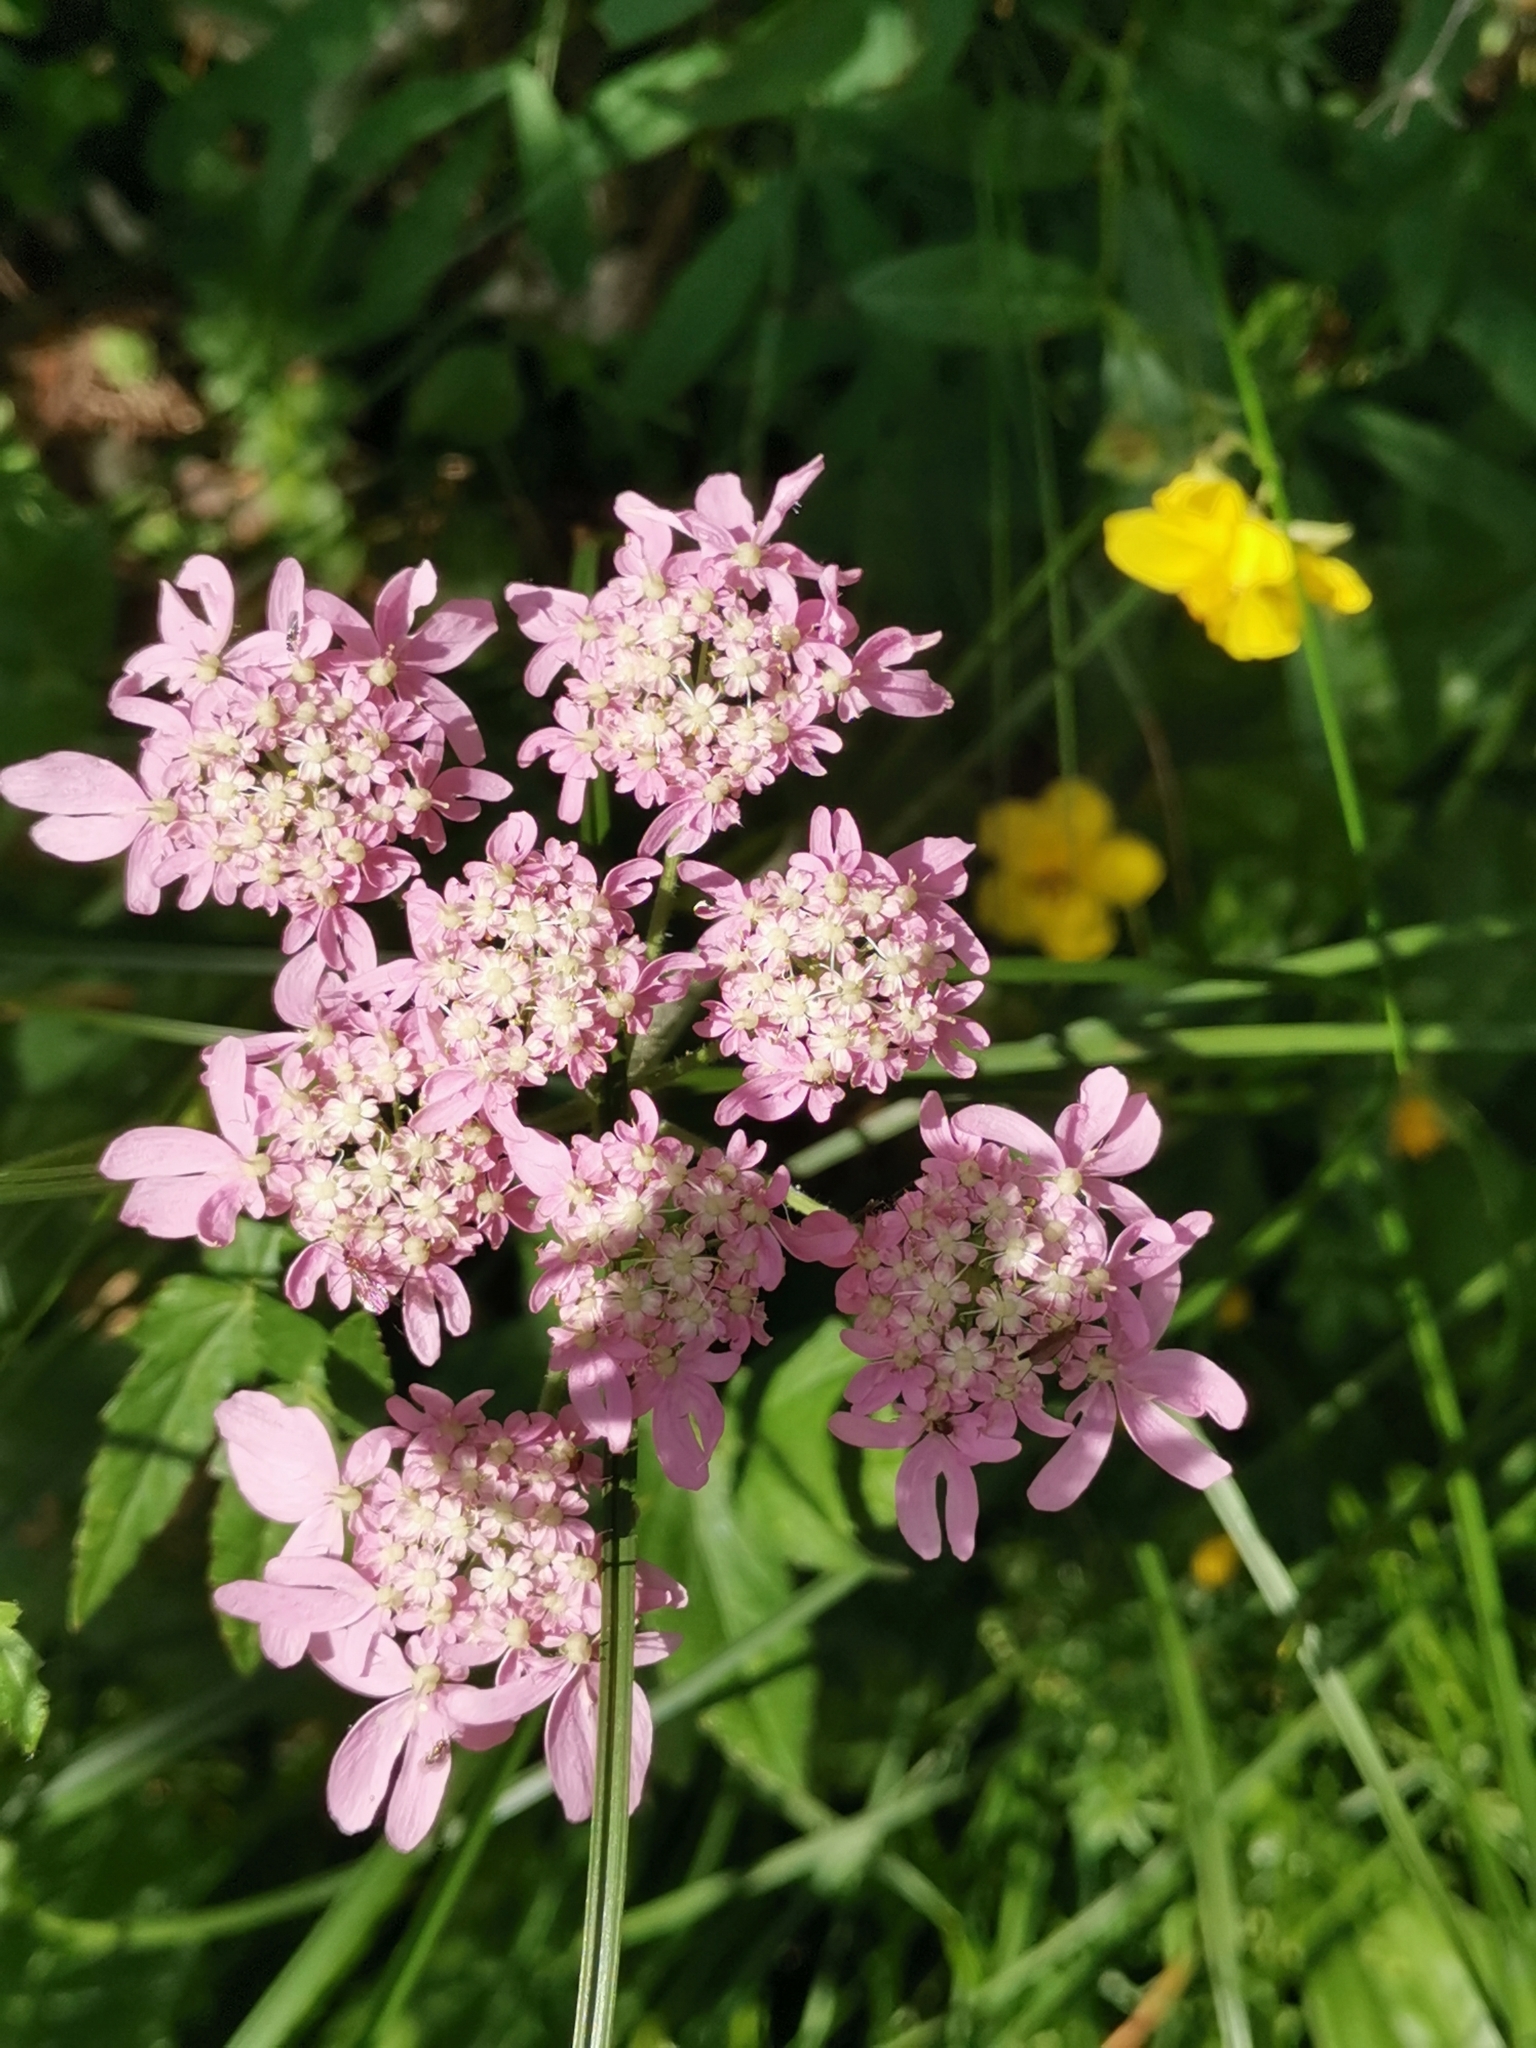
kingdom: Plantae
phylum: Tracheophyta
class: Magnoliopsida
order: Apiales
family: Apiaceae
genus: Heracleum
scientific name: Heracleum austriacum
